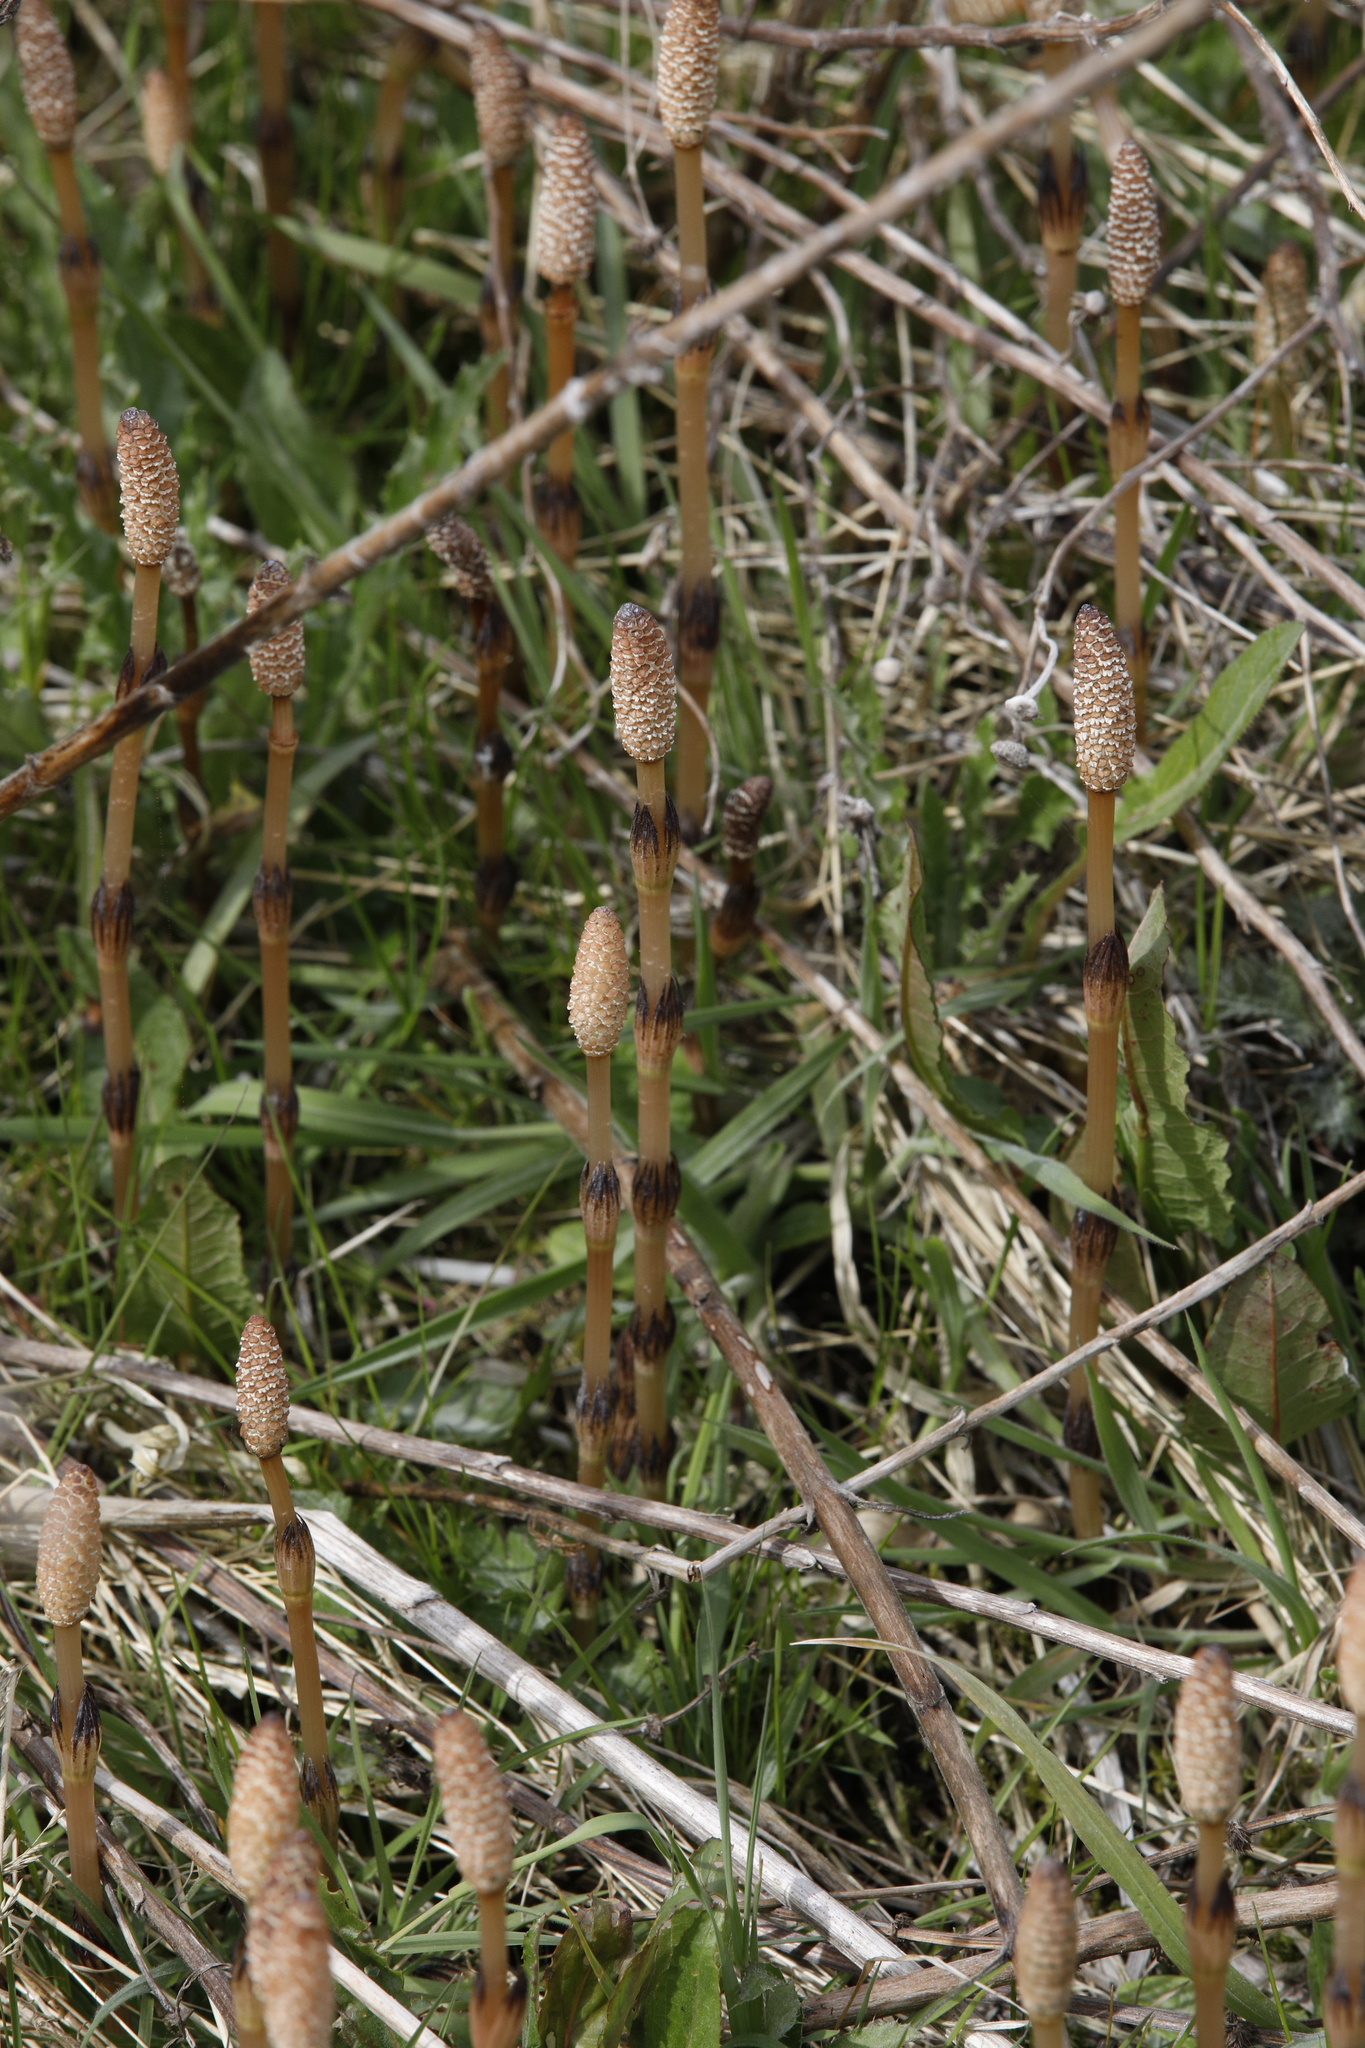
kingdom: Plantae
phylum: Tracheophyta
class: Polypodiopsida
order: Equisetales
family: Equisetaceae
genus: Equisetum
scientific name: Equisetum arvense
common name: Field horsetail
